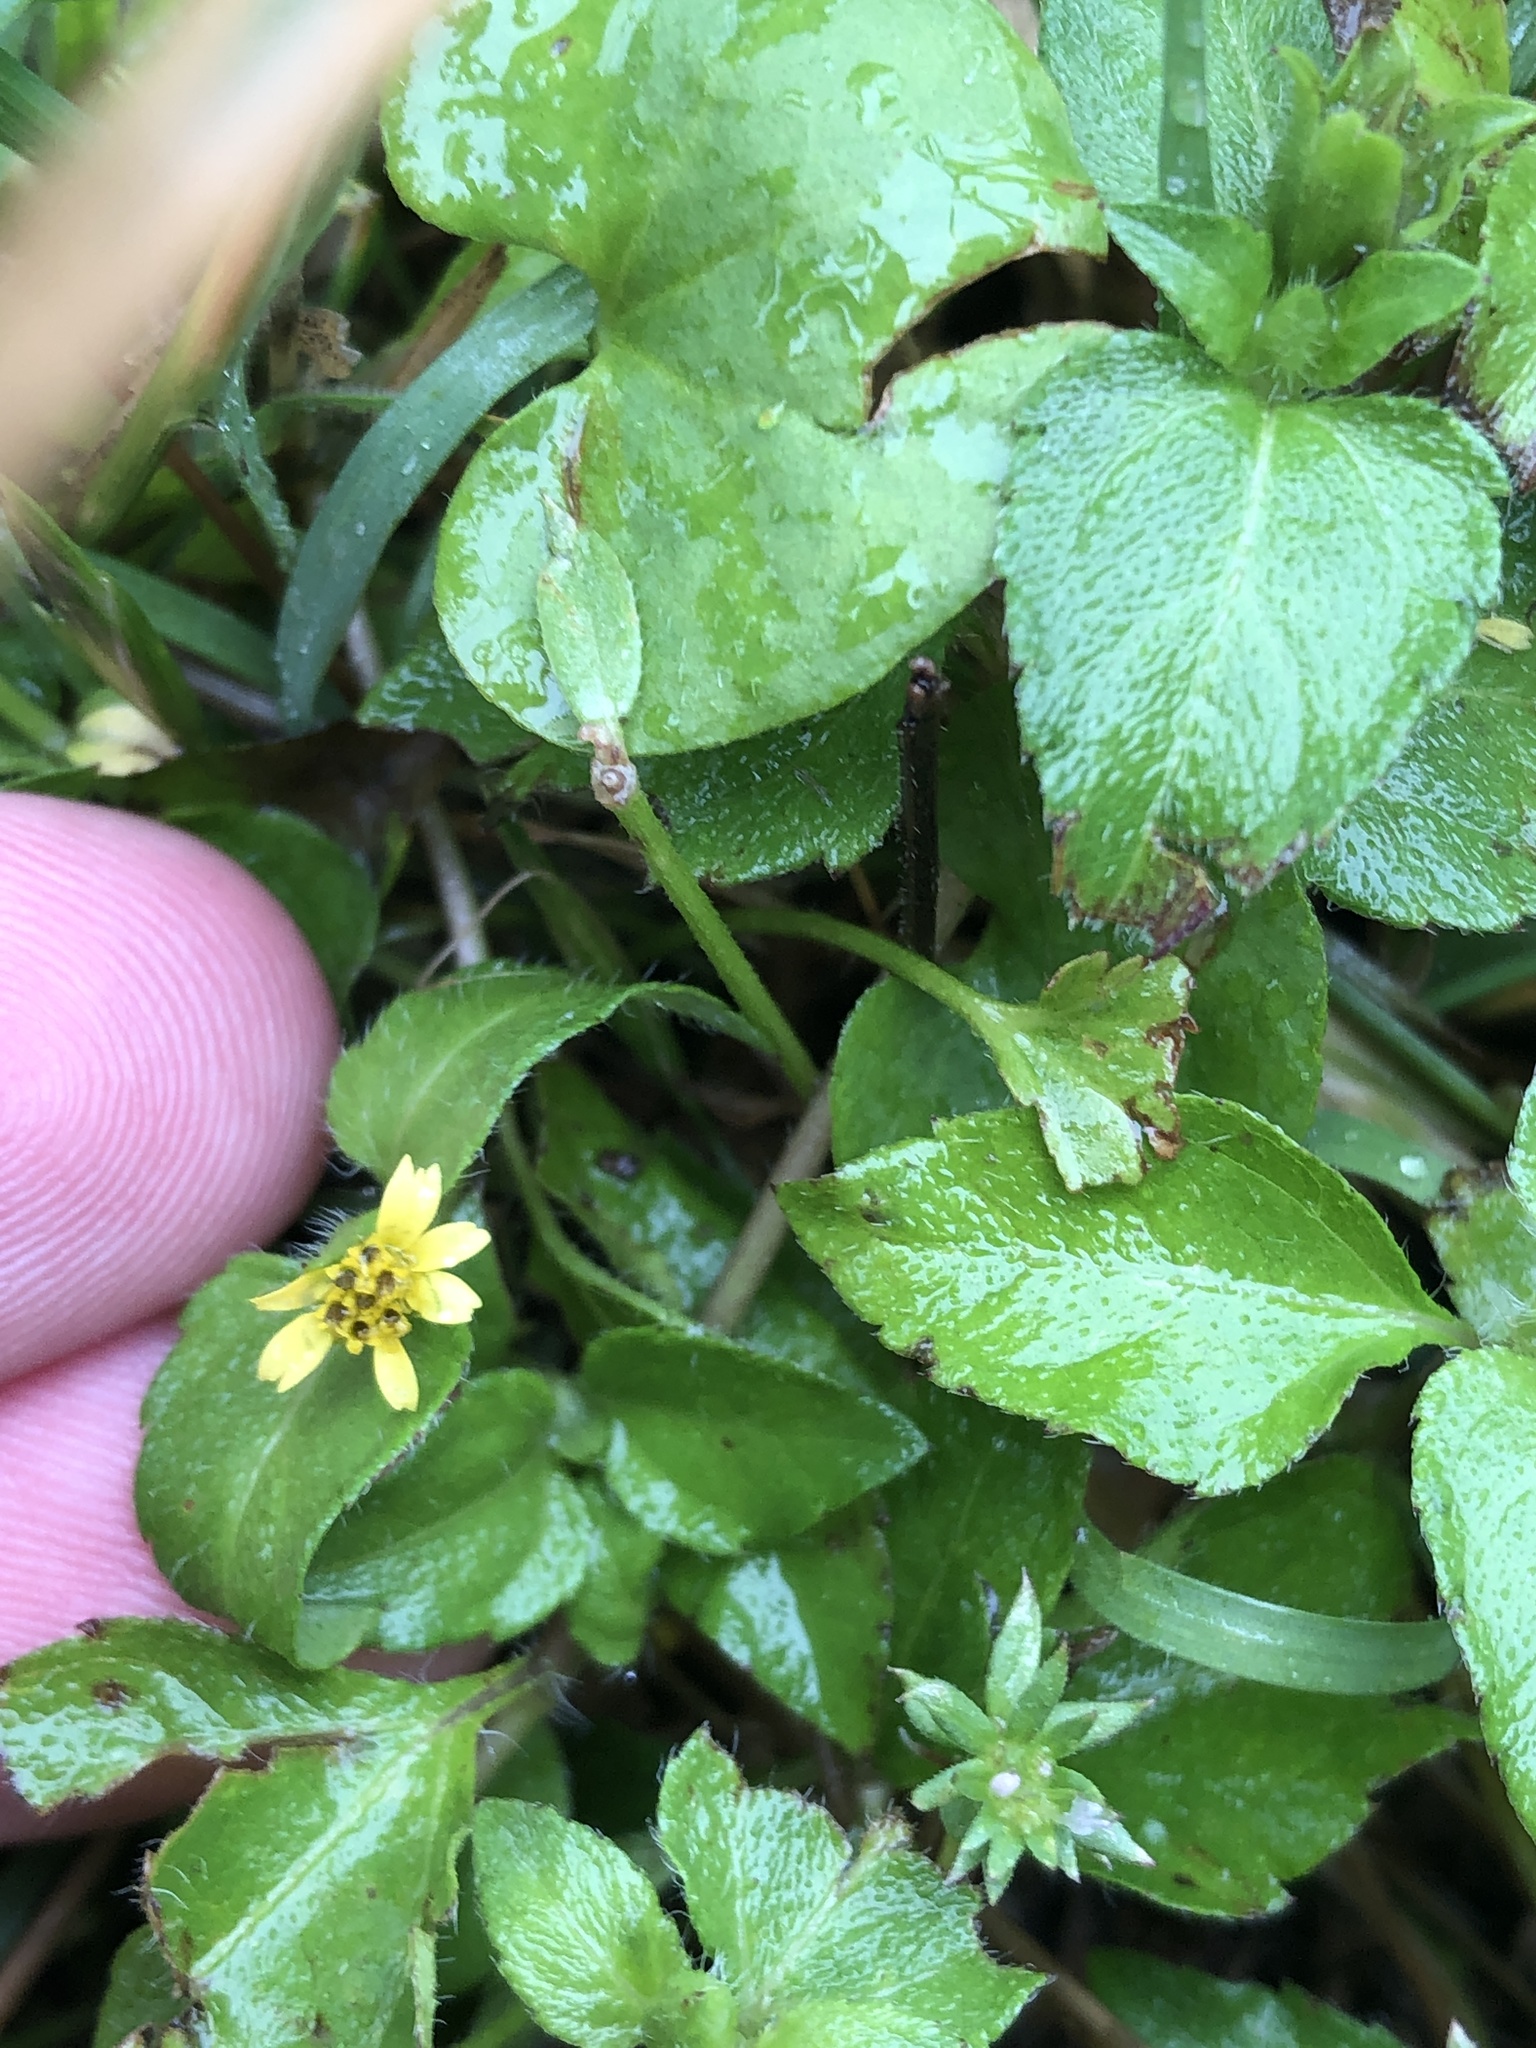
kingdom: Plantae
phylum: Tracheophyta
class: Magnoliopsida
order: Asterales
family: Asteraceae
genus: Calyptocarpus
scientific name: Calyptocarpus vialis
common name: Straggler daisy
